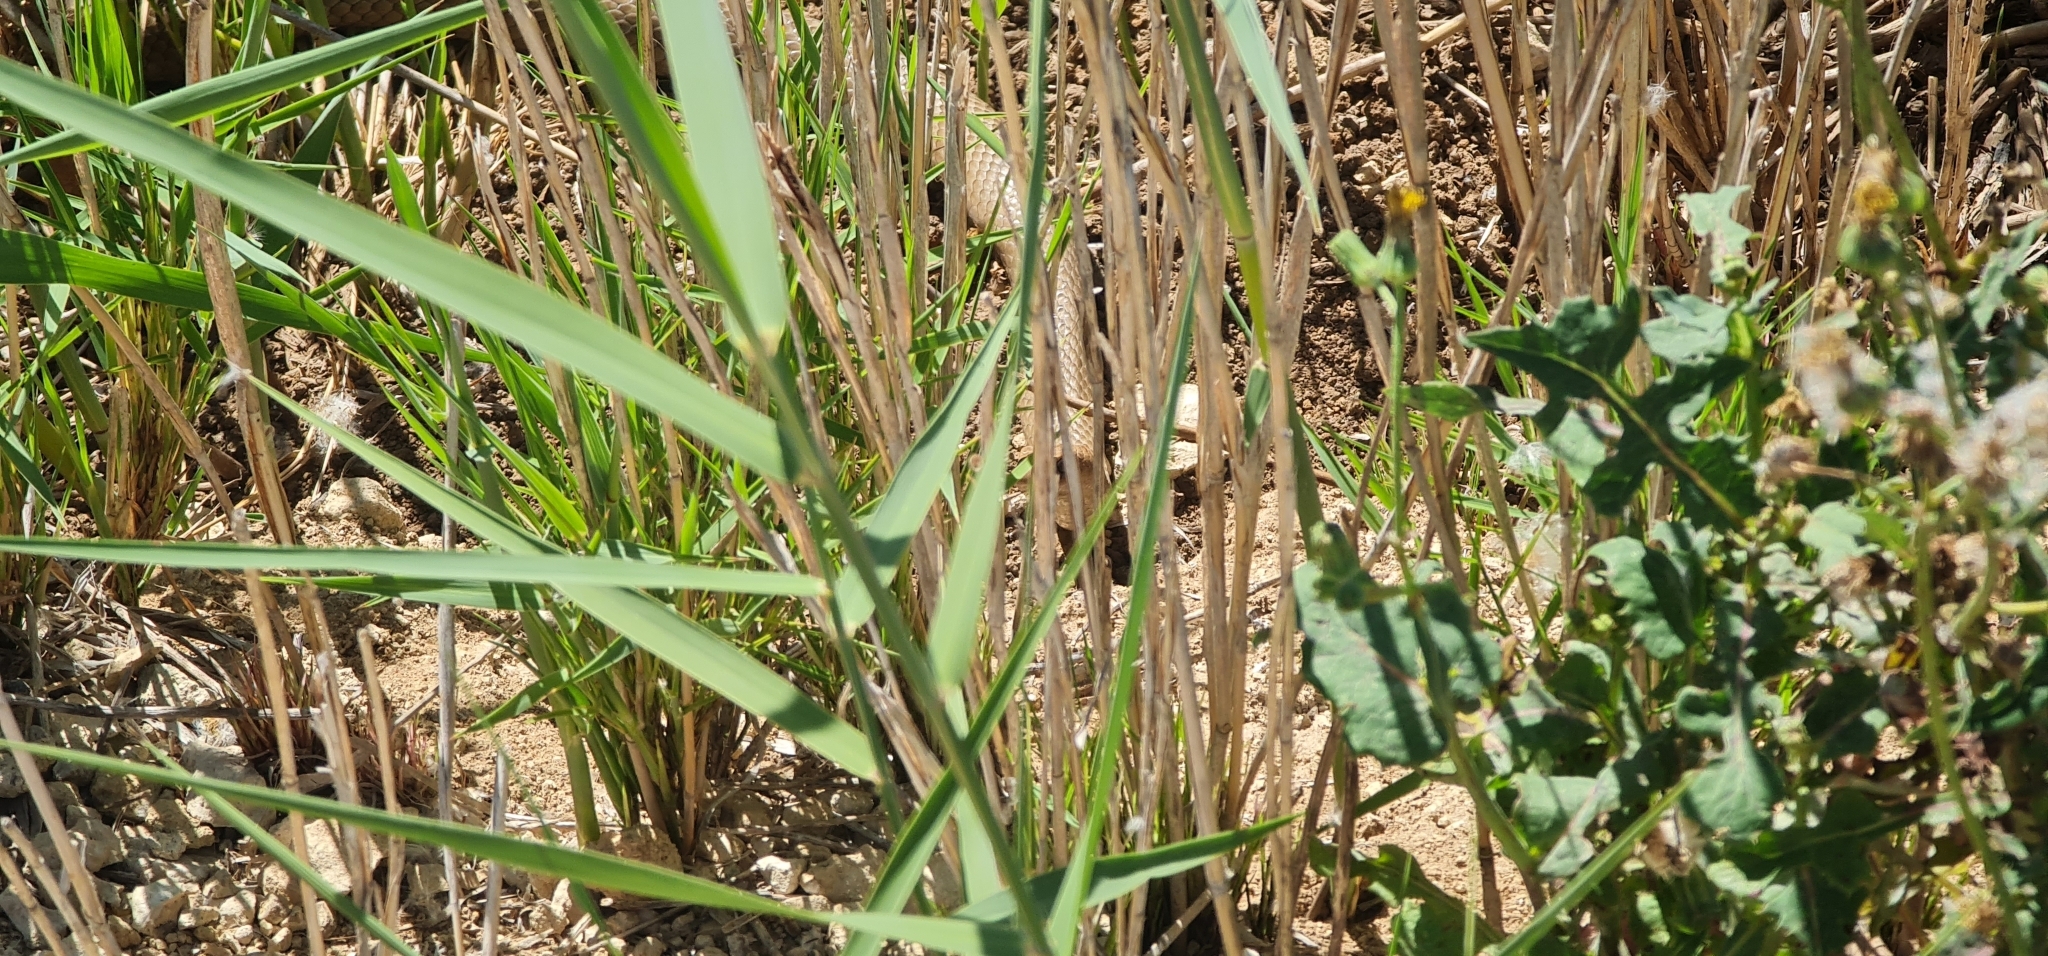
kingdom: Animalia
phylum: Chordata
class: Squamata
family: Elapidae
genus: Pseudonaja
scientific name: Pseudonaja textilis
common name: Eastern brown snake
